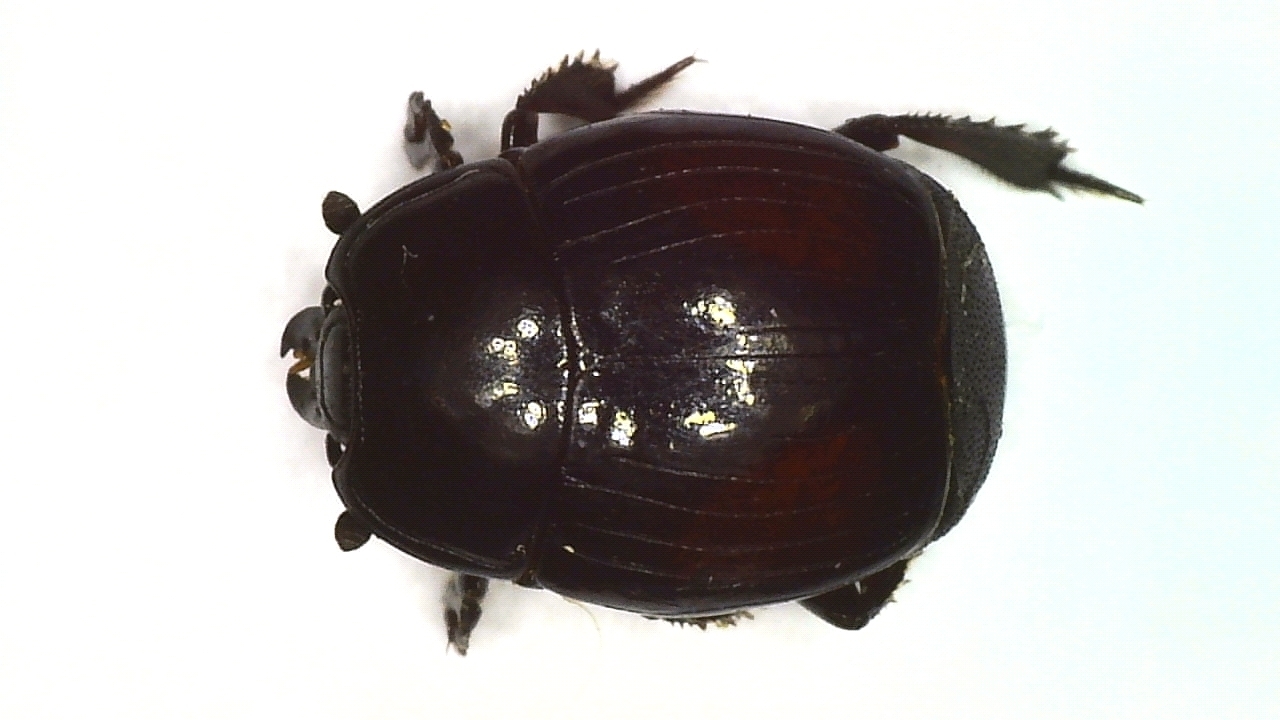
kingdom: Animalia
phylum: Arthropoda
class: Insecta
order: Coleoptera
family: Histeridae
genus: Margarinotus
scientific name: Margarinotus purpurascens
